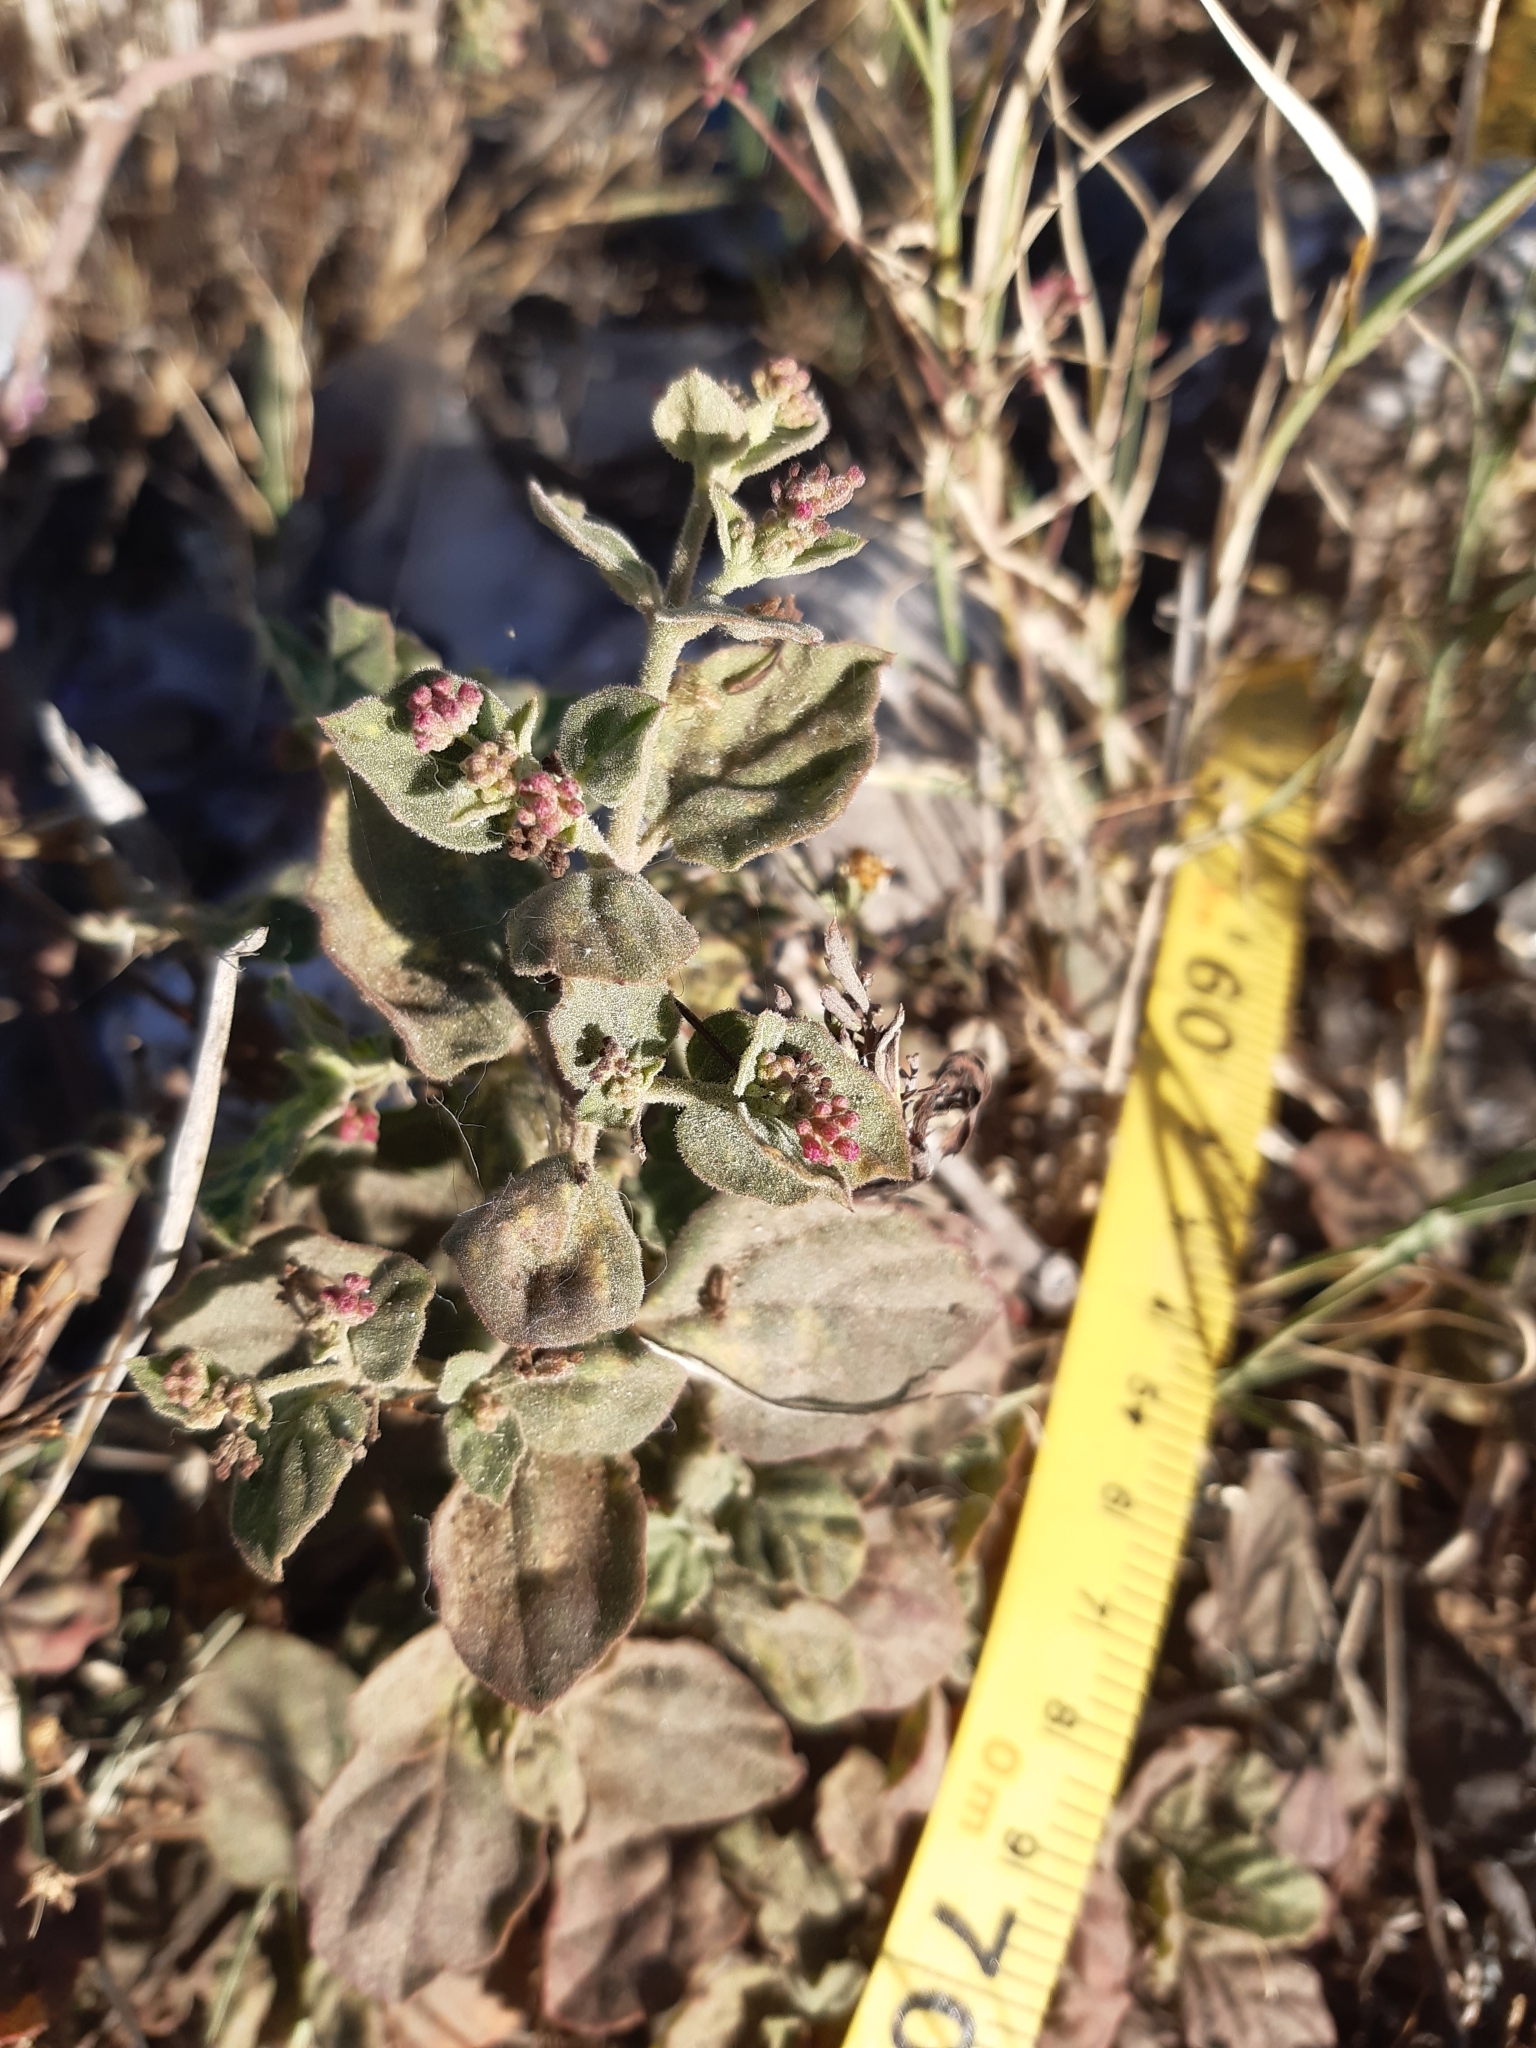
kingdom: Plantae
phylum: Tracheophyta
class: Magnoliopsida
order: Caryophyllales
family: Nyctaginaceae
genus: Boerhavia
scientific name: Boerhavia coccinea
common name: Scarlet spiderling
